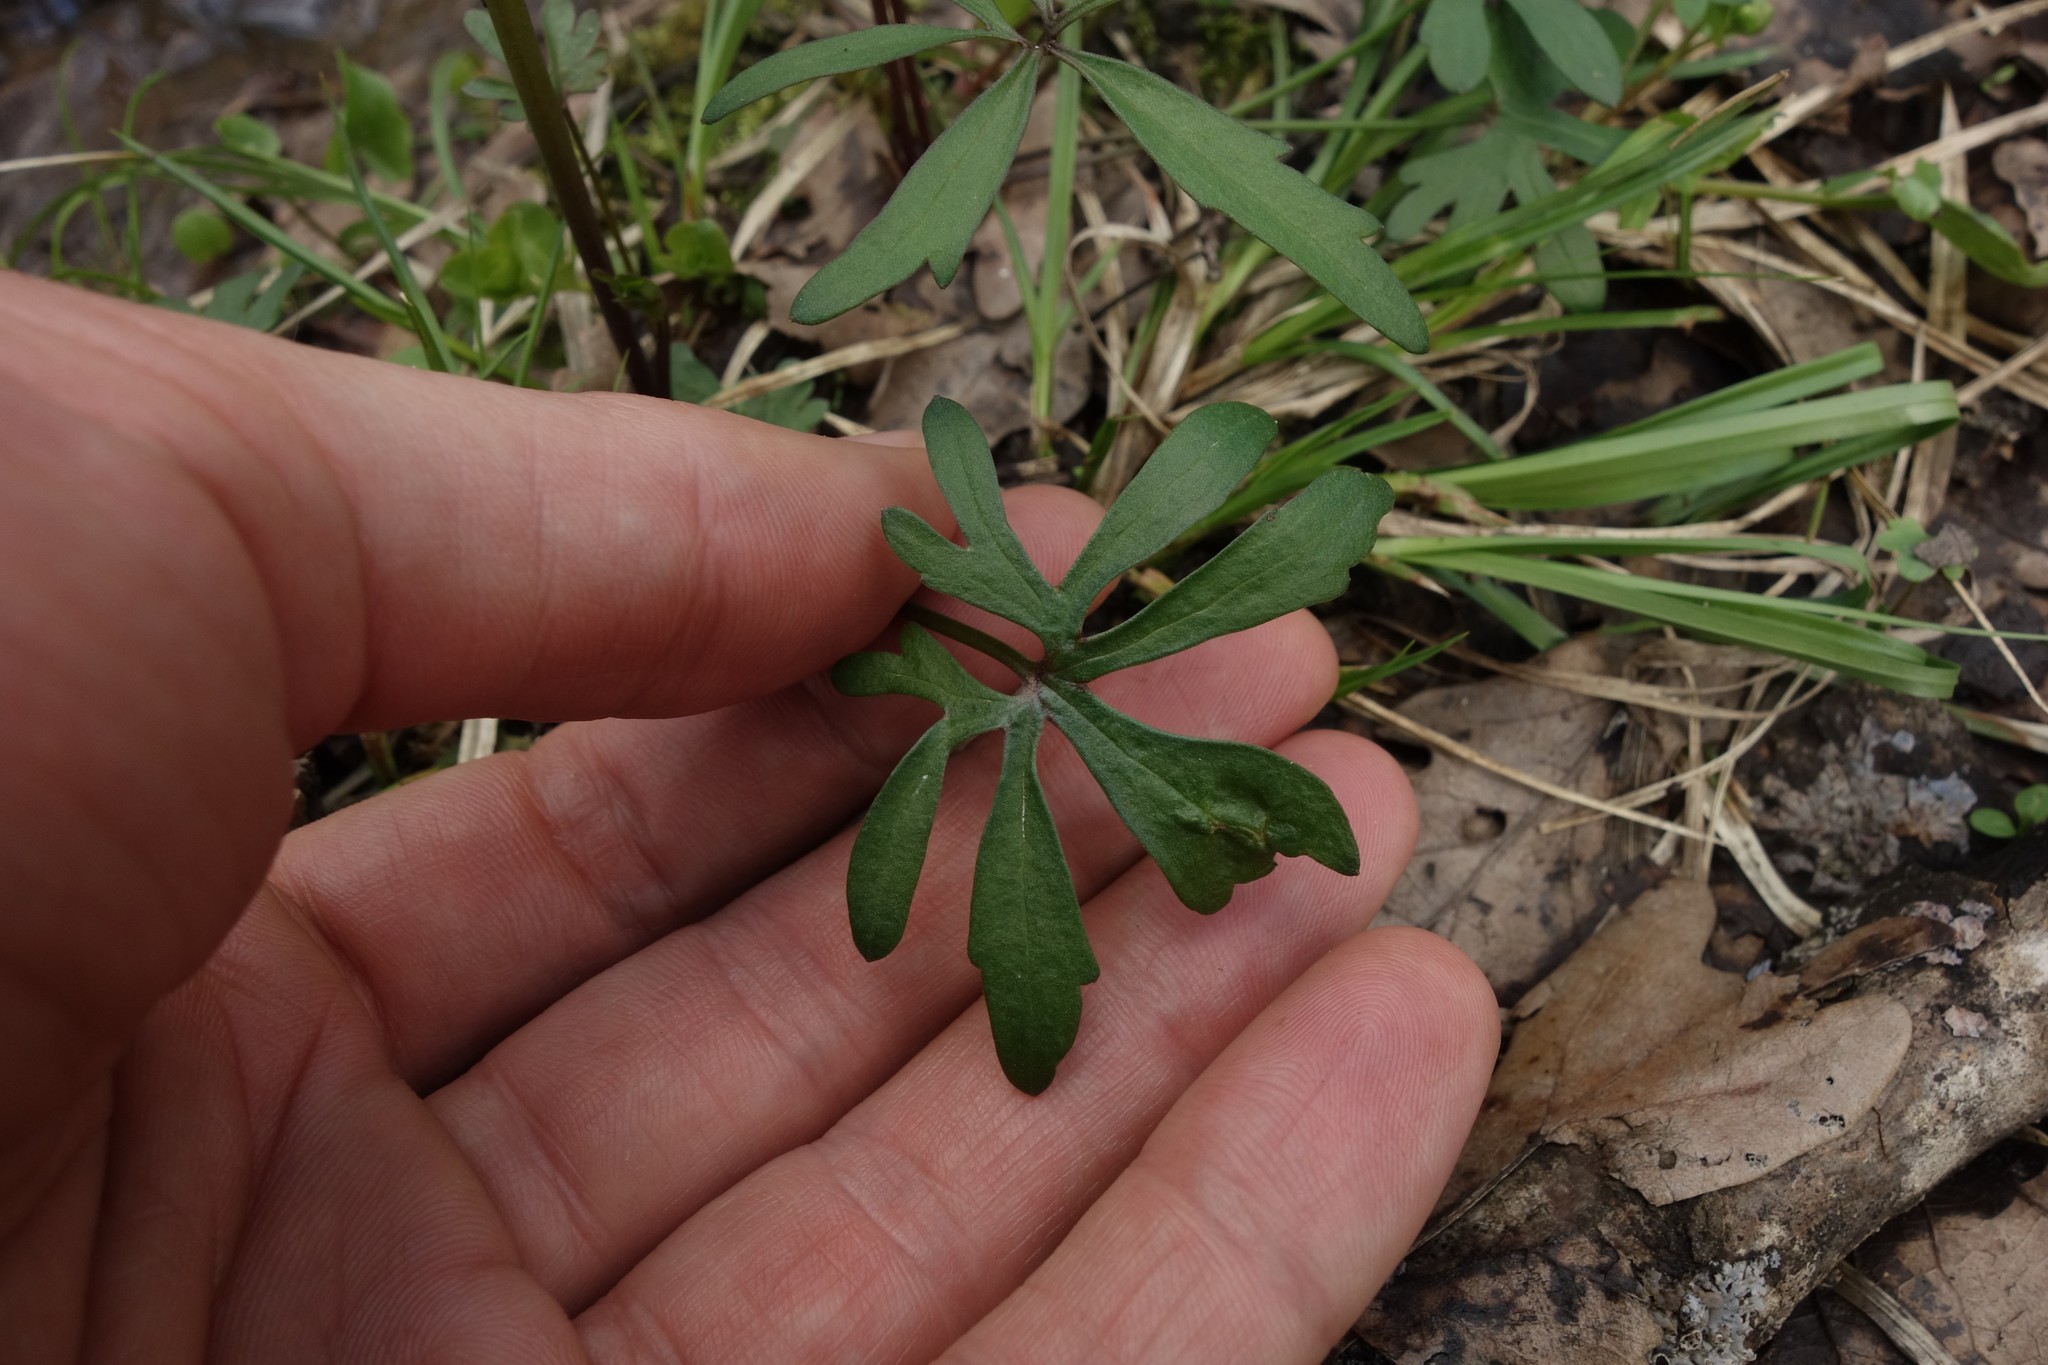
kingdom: Plantae
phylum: Tracheophyta
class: Magnoliopsida
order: Ranunculales
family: Ranunculaceae
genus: Ranunculus
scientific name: Ranunculus auricomus
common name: Goldilocks buttercup
